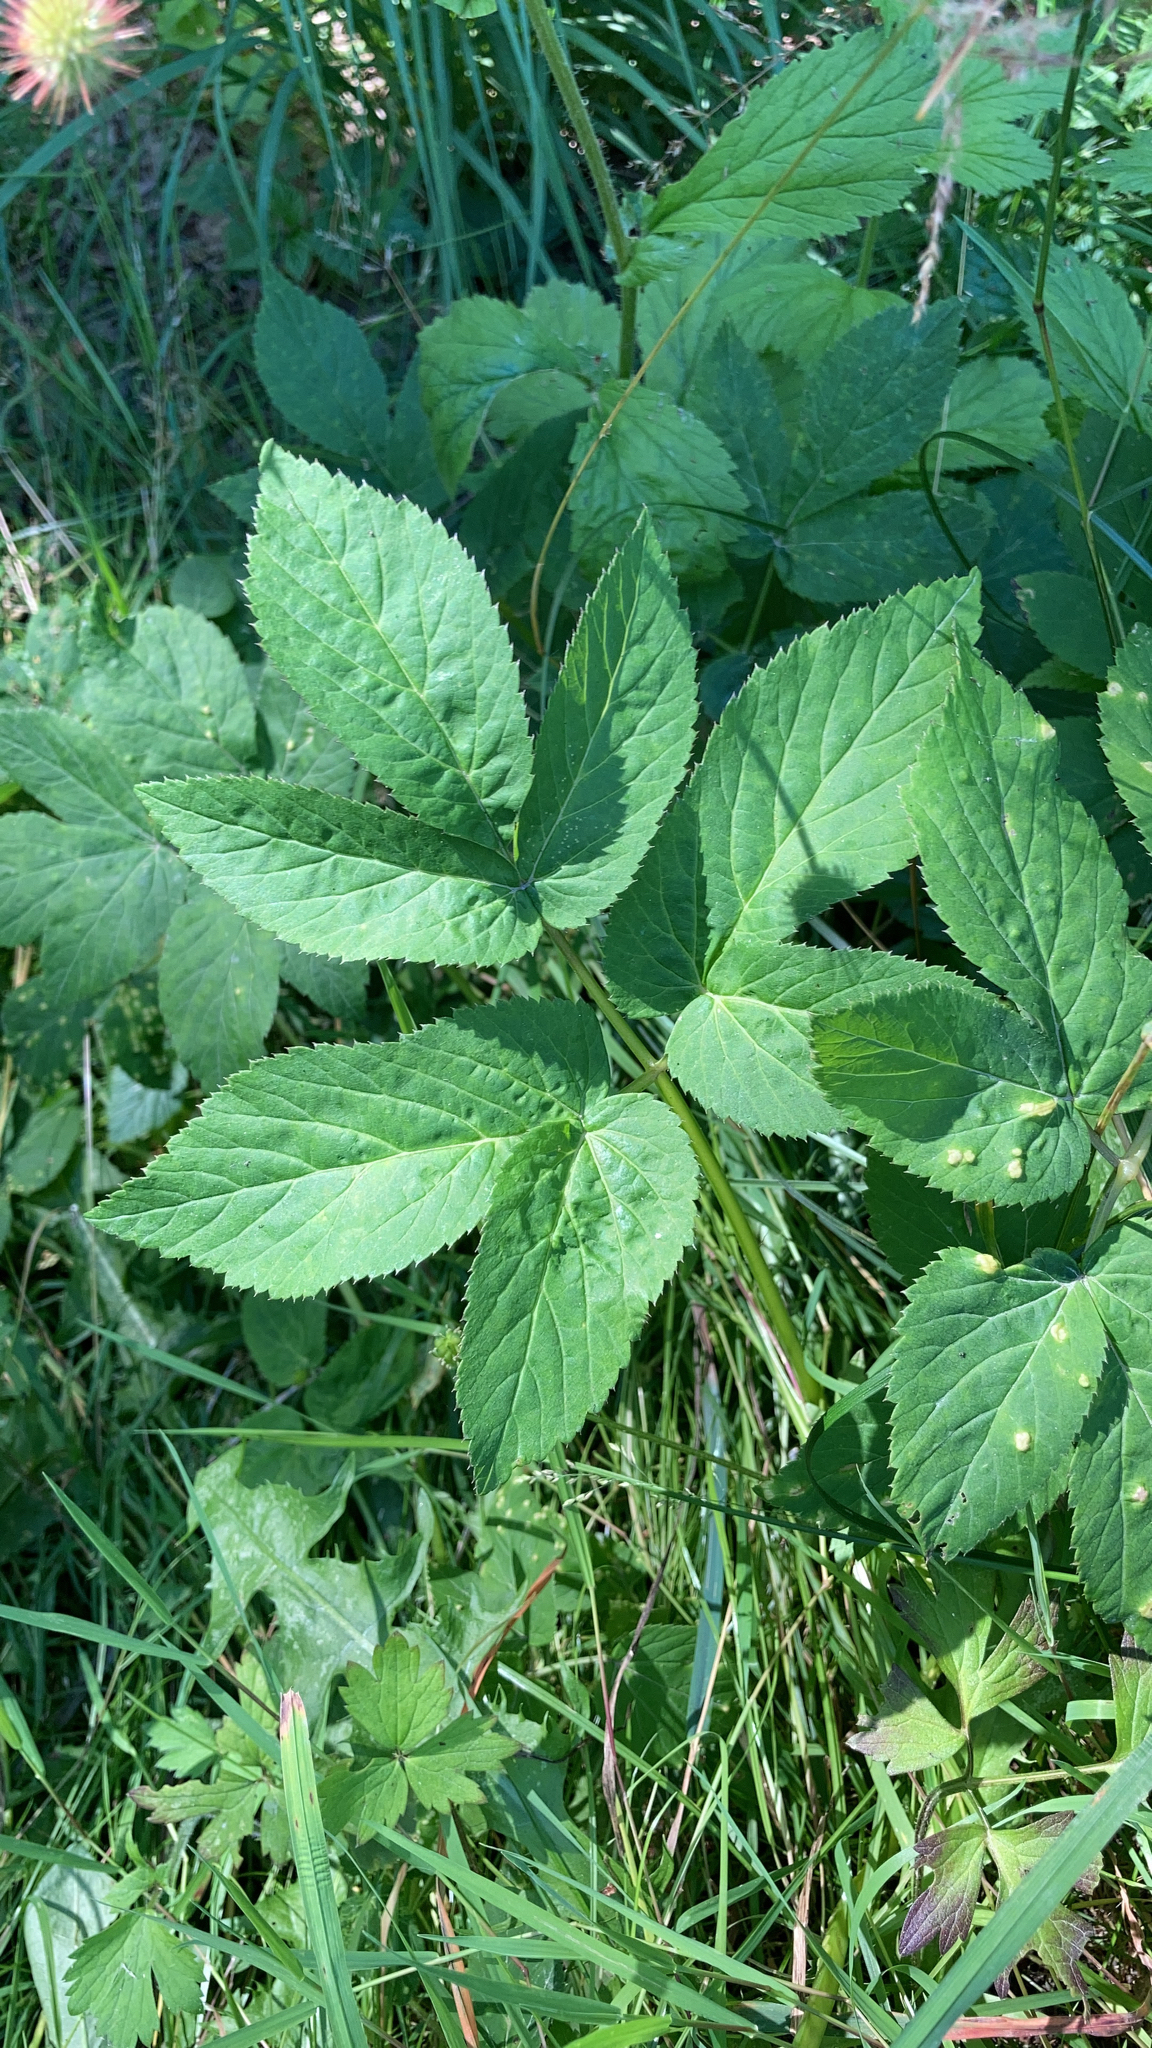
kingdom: Plantae
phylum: Tracheophyta
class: Magnoliopsida
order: Apiales
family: Apiaceae
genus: Aegopodium
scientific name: Aegopodium podagraria
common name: Ground-elder
